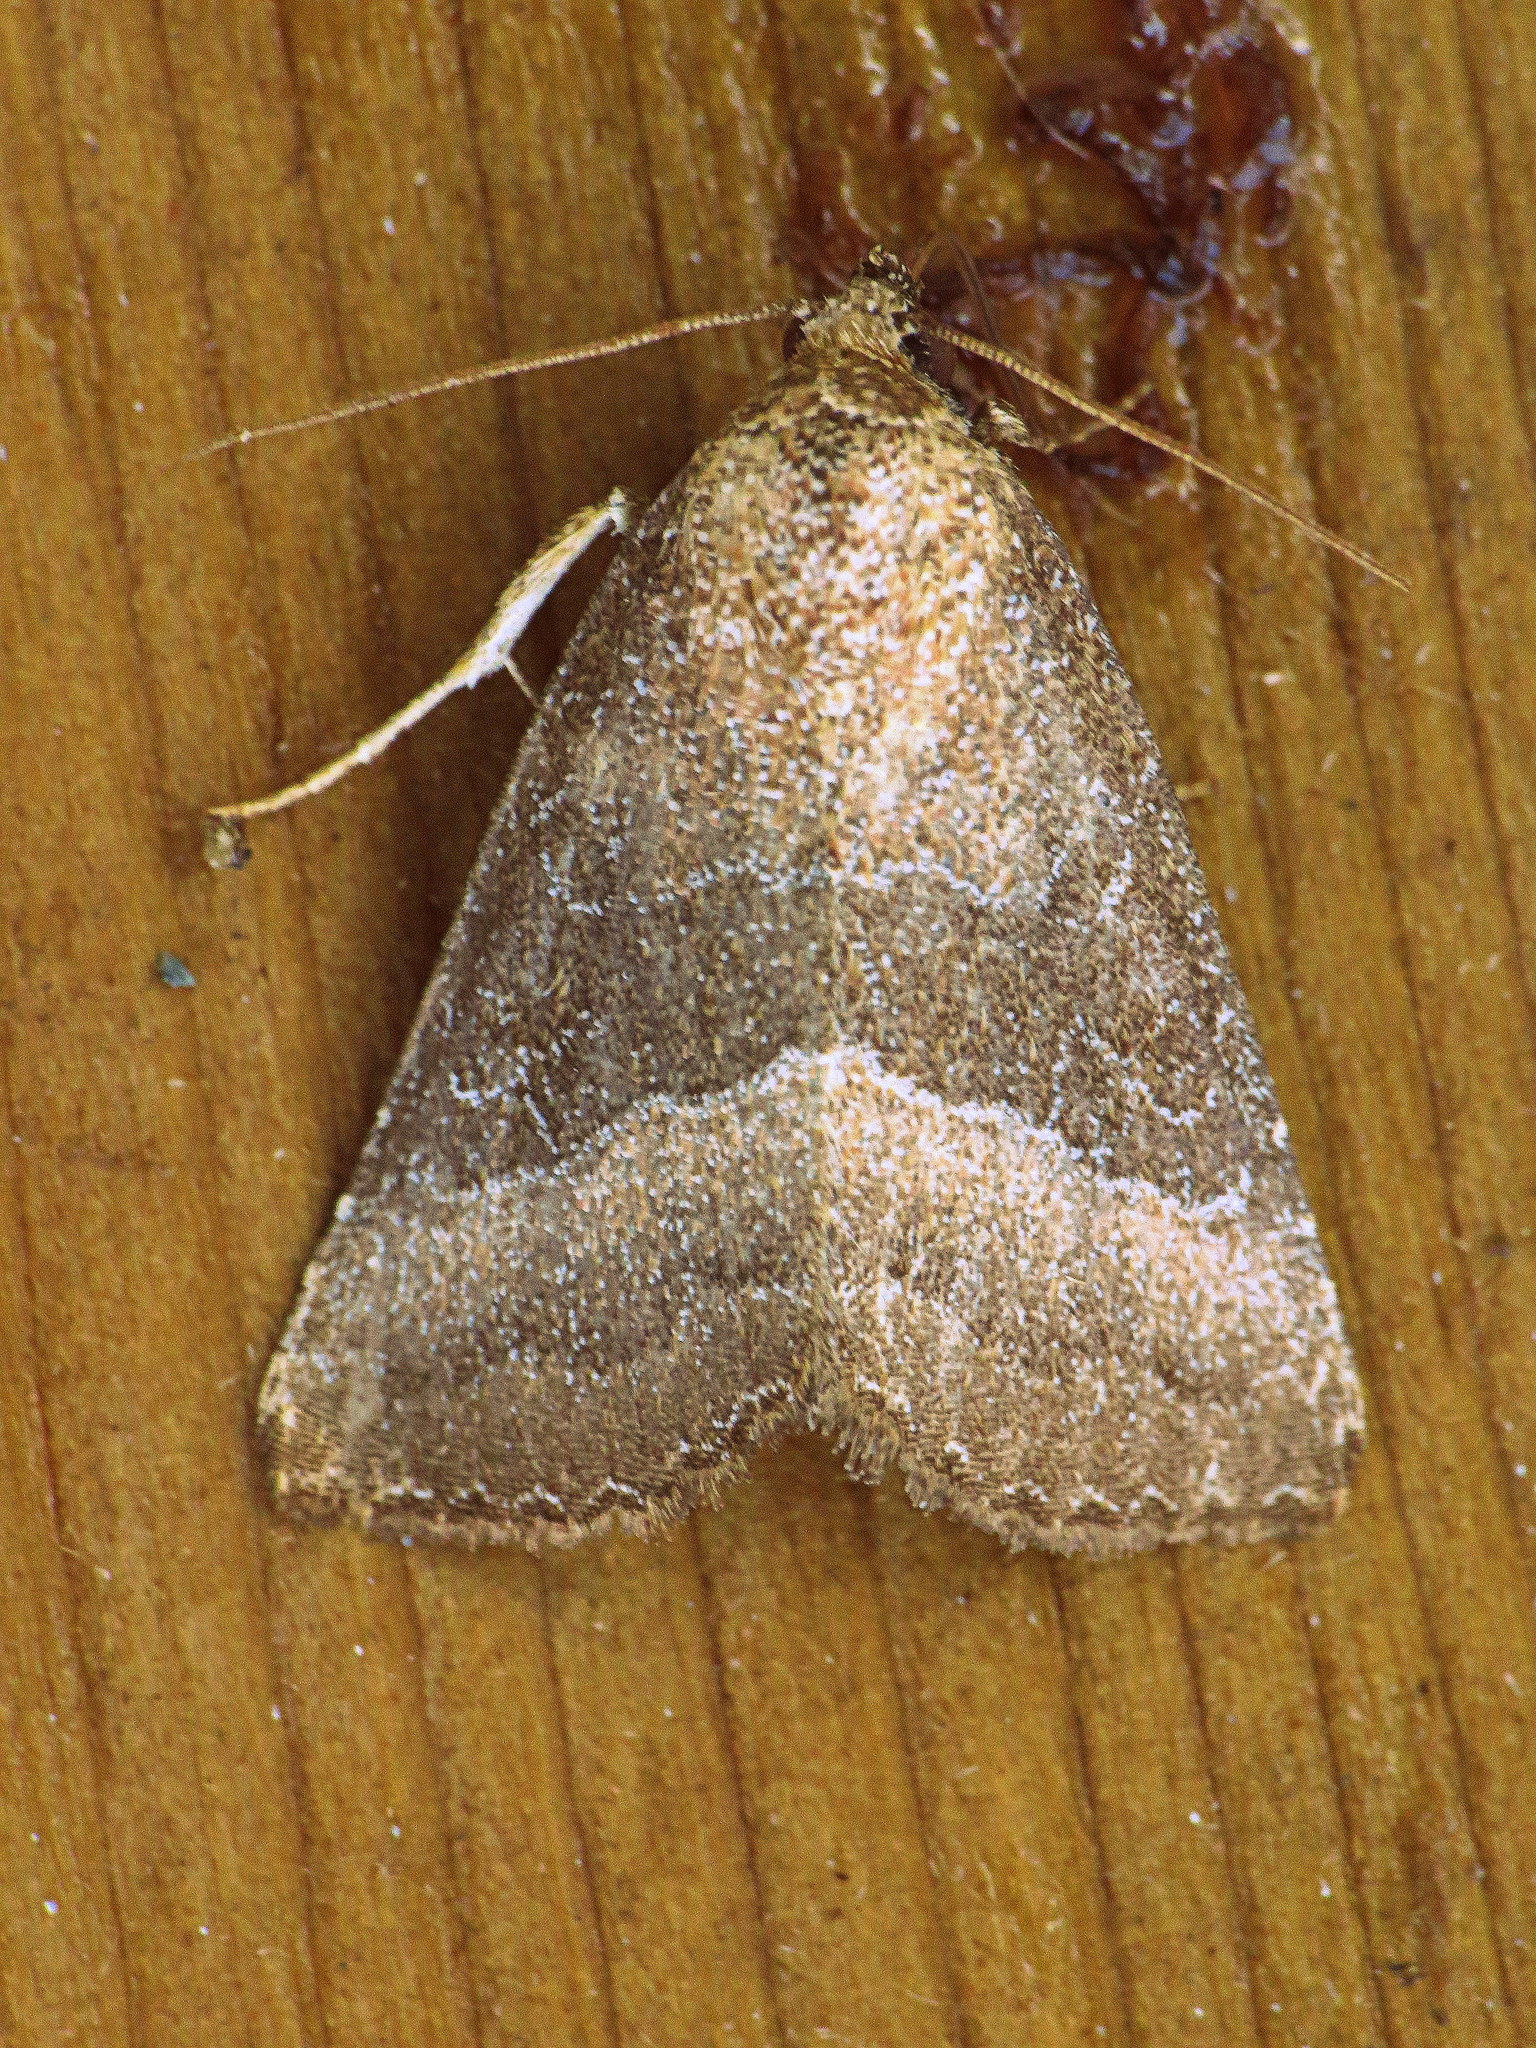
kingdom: Animalia
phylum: Arthropoda
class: Insecta
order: Lepidoptera
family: Noctuidae
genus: Ogdoconta
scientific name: Ogdoconta cinereola
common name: Common pinkband
